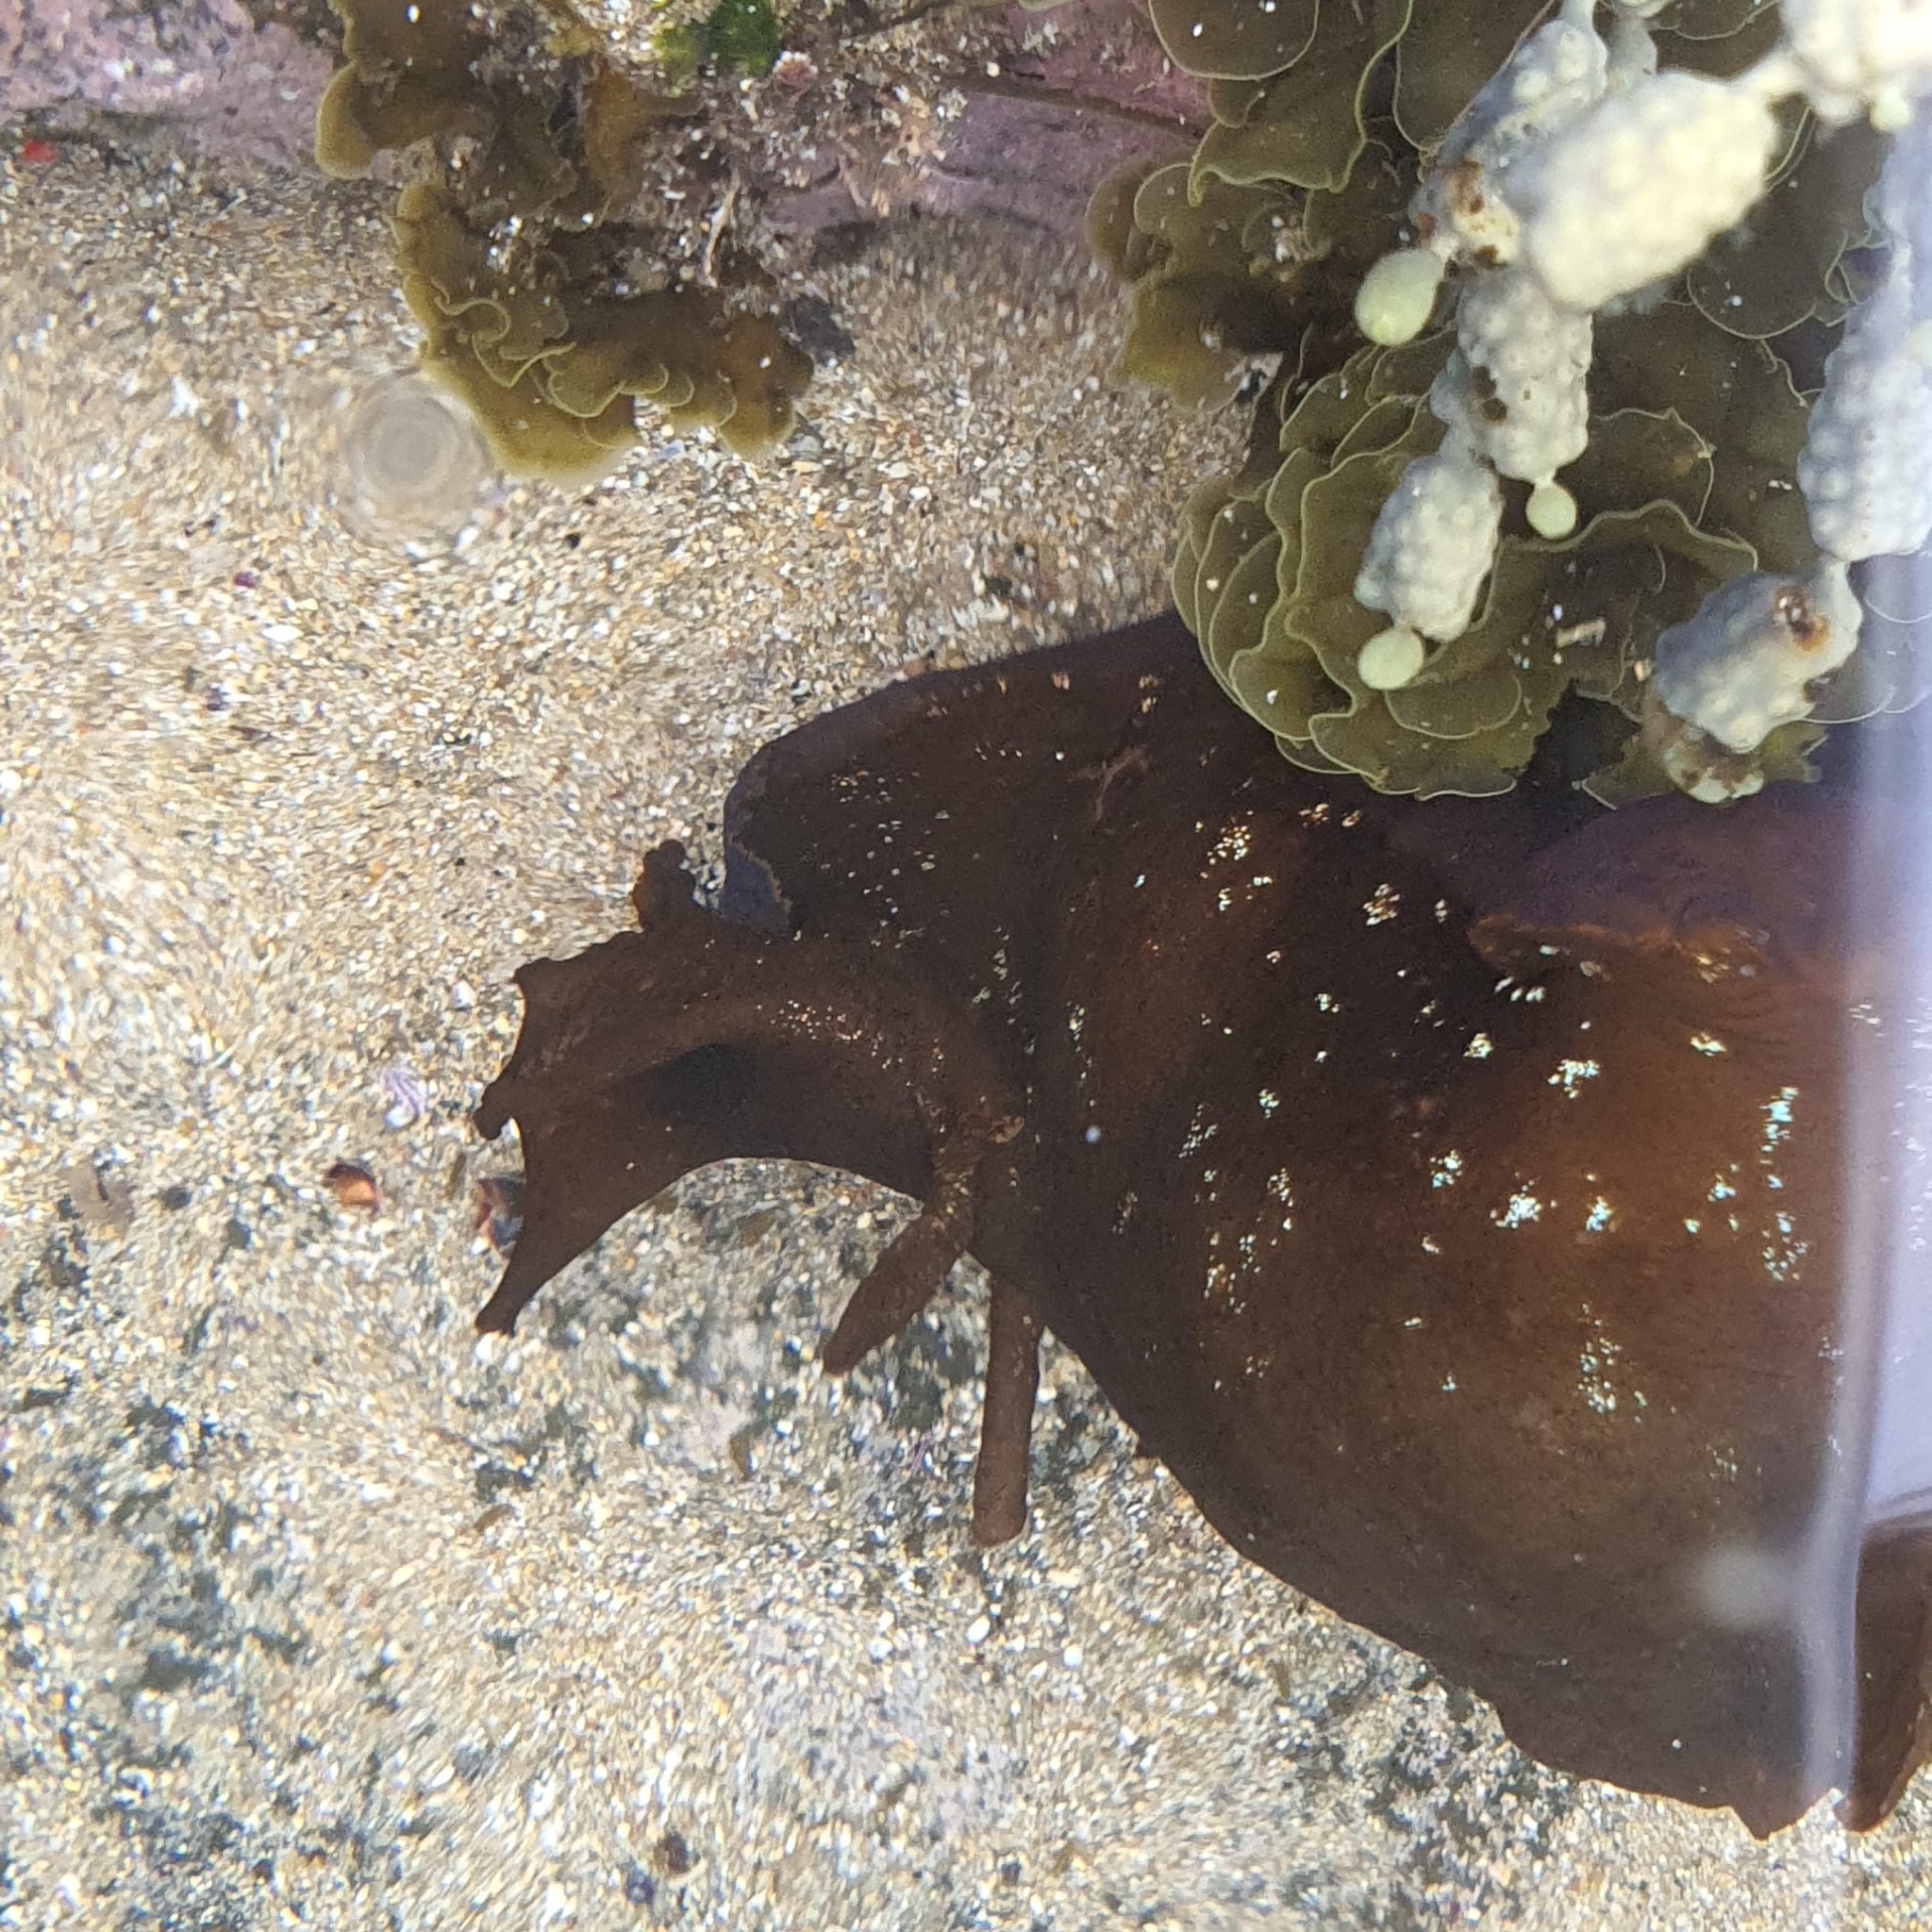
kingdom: Animalia
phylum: Mollusca
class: Gastropoda
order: Aplysiida
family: Aplysiidae
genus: Aplysia
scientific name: Aplysia juliana
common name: Walking sea hare
